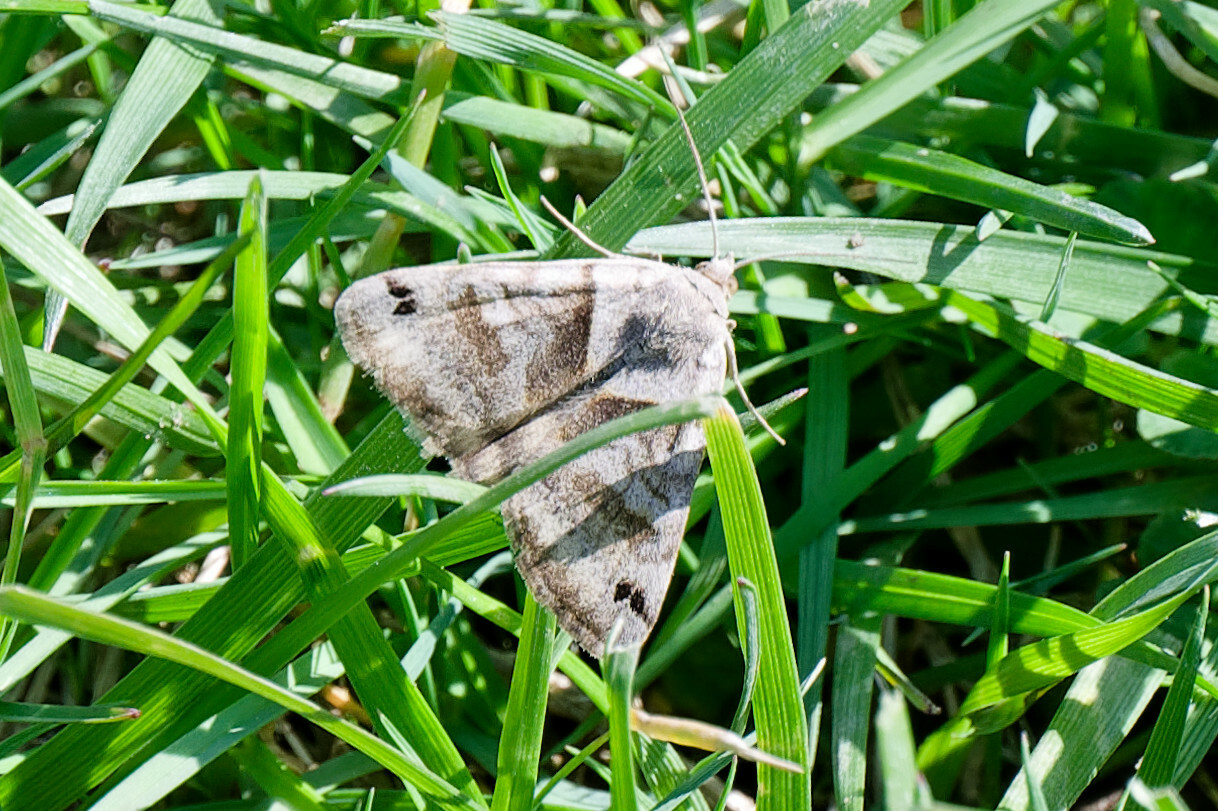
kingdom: Animalia
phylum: Arthropoda
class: Insecta
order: Lepidoptera
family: Erebidae
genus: Caenurgina
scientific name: Caenurgina crassiuscula
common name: Double-barred
